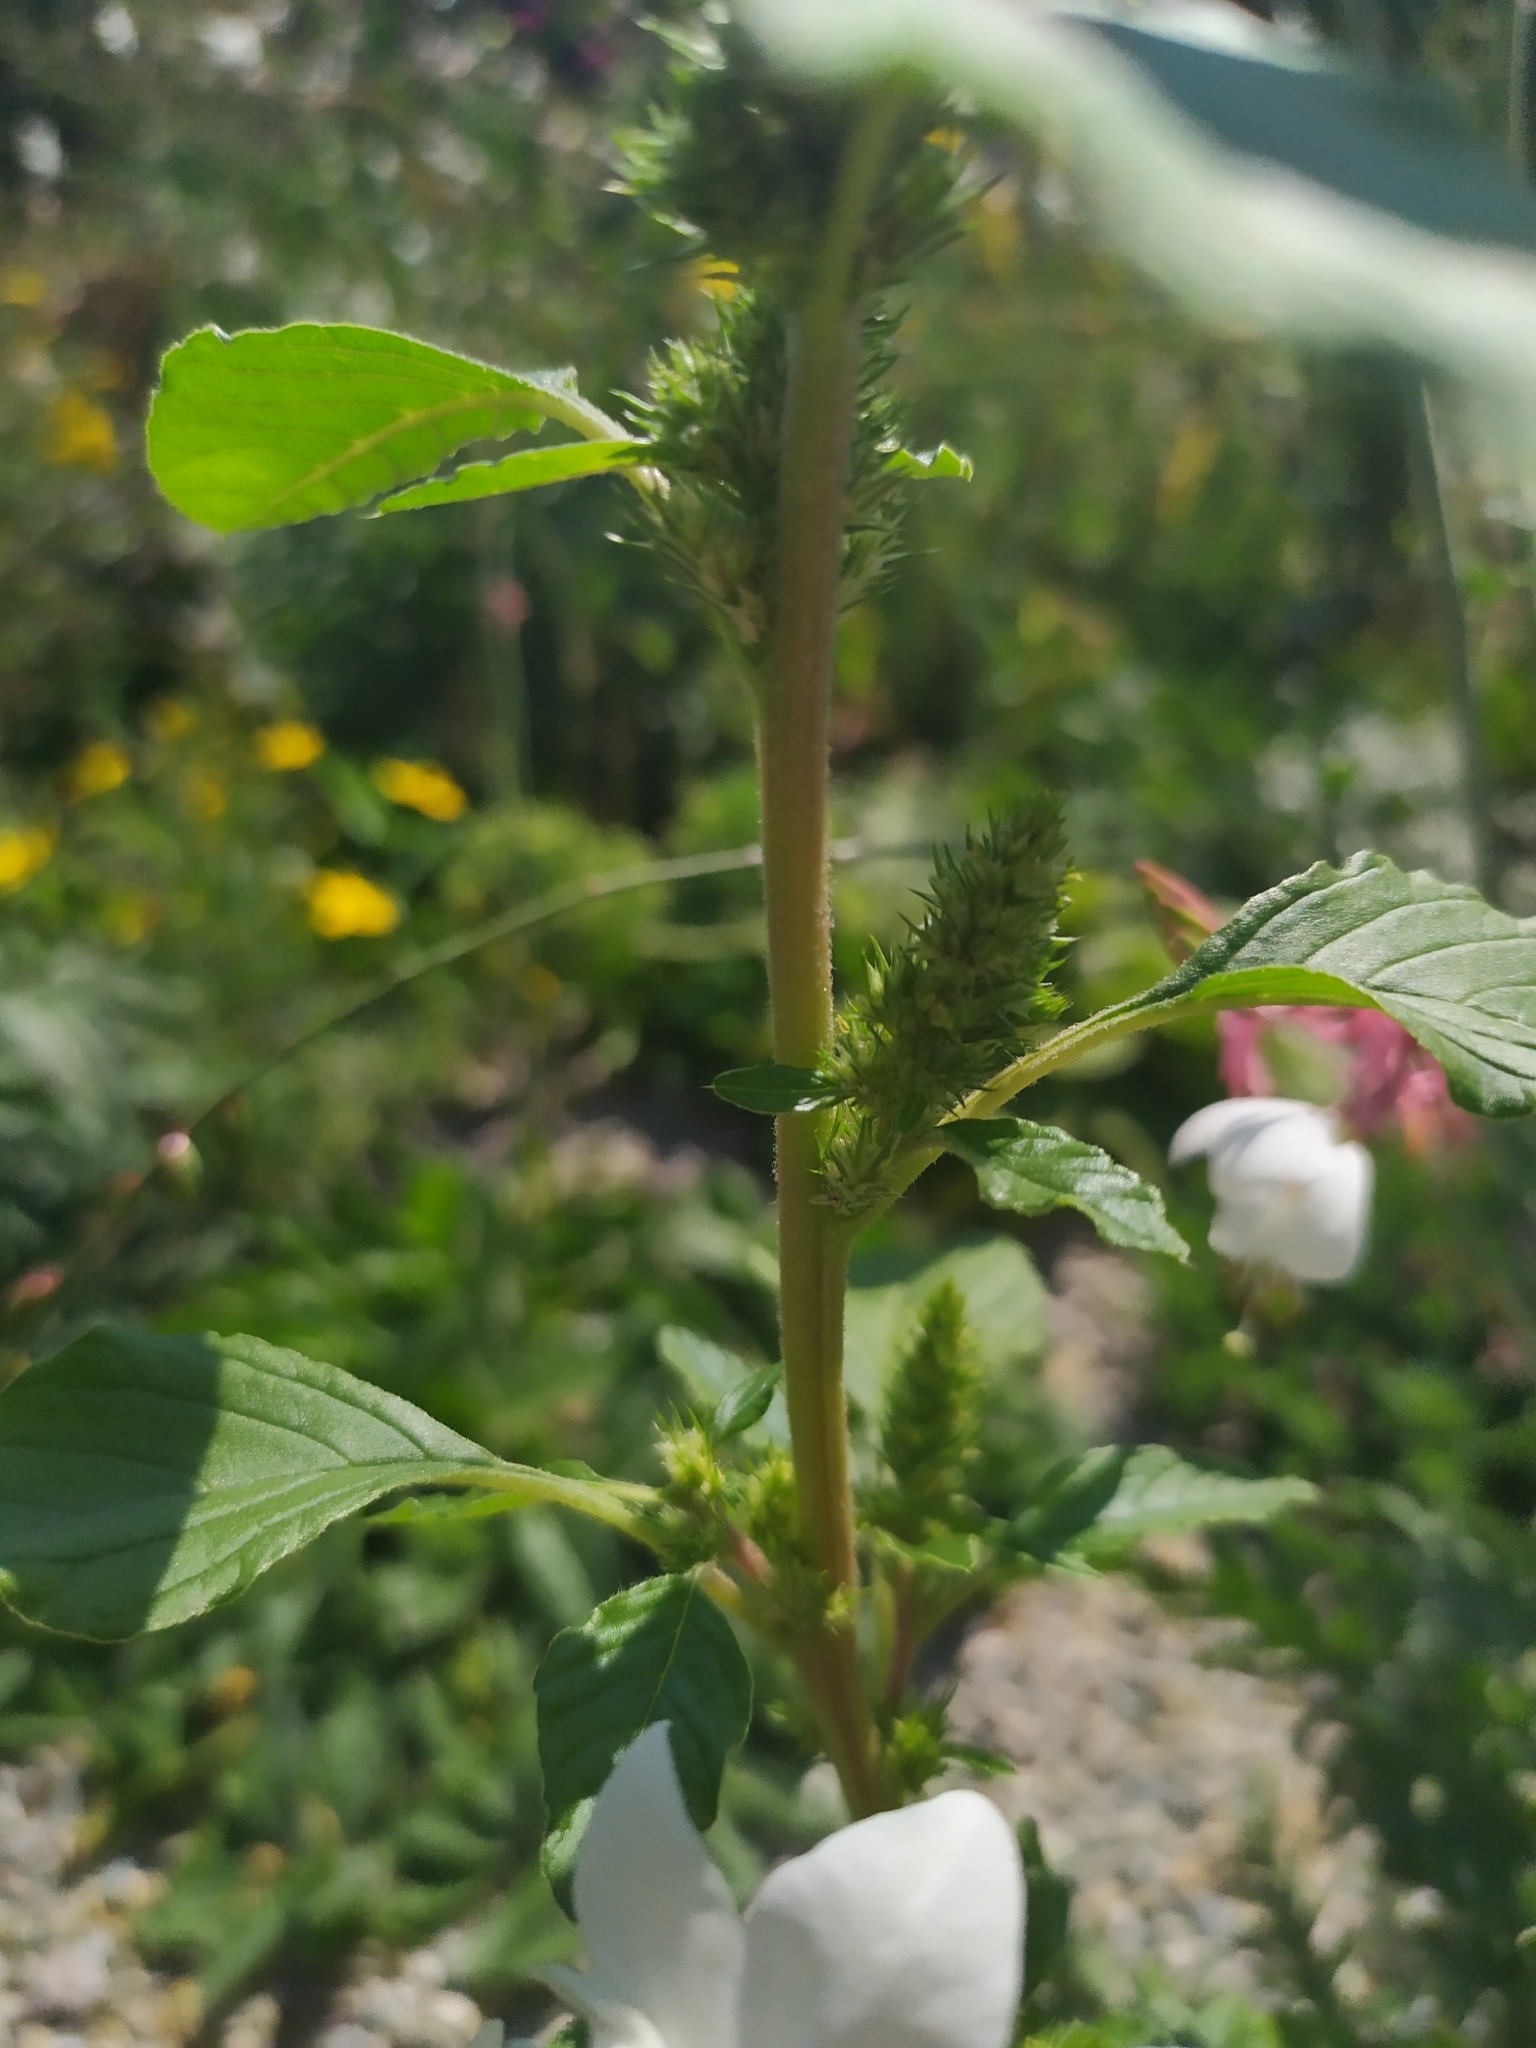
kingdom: Plantae
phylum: Tracheophyta
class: Magnoliopsida
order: Caryophyllales
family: Amaranthaceae
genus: Amaranthus
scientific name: Amaranthus retroflexus
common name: Redroot amaranth
